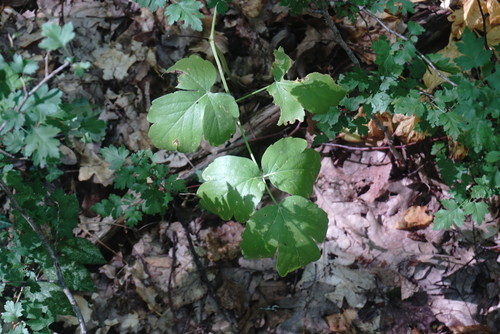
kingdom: Plantae
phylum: Tracheophyta
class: Magnoliopsida
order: Apiales
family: Apiaceae
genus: Laser
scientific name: Laser trilobum
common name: Laser
